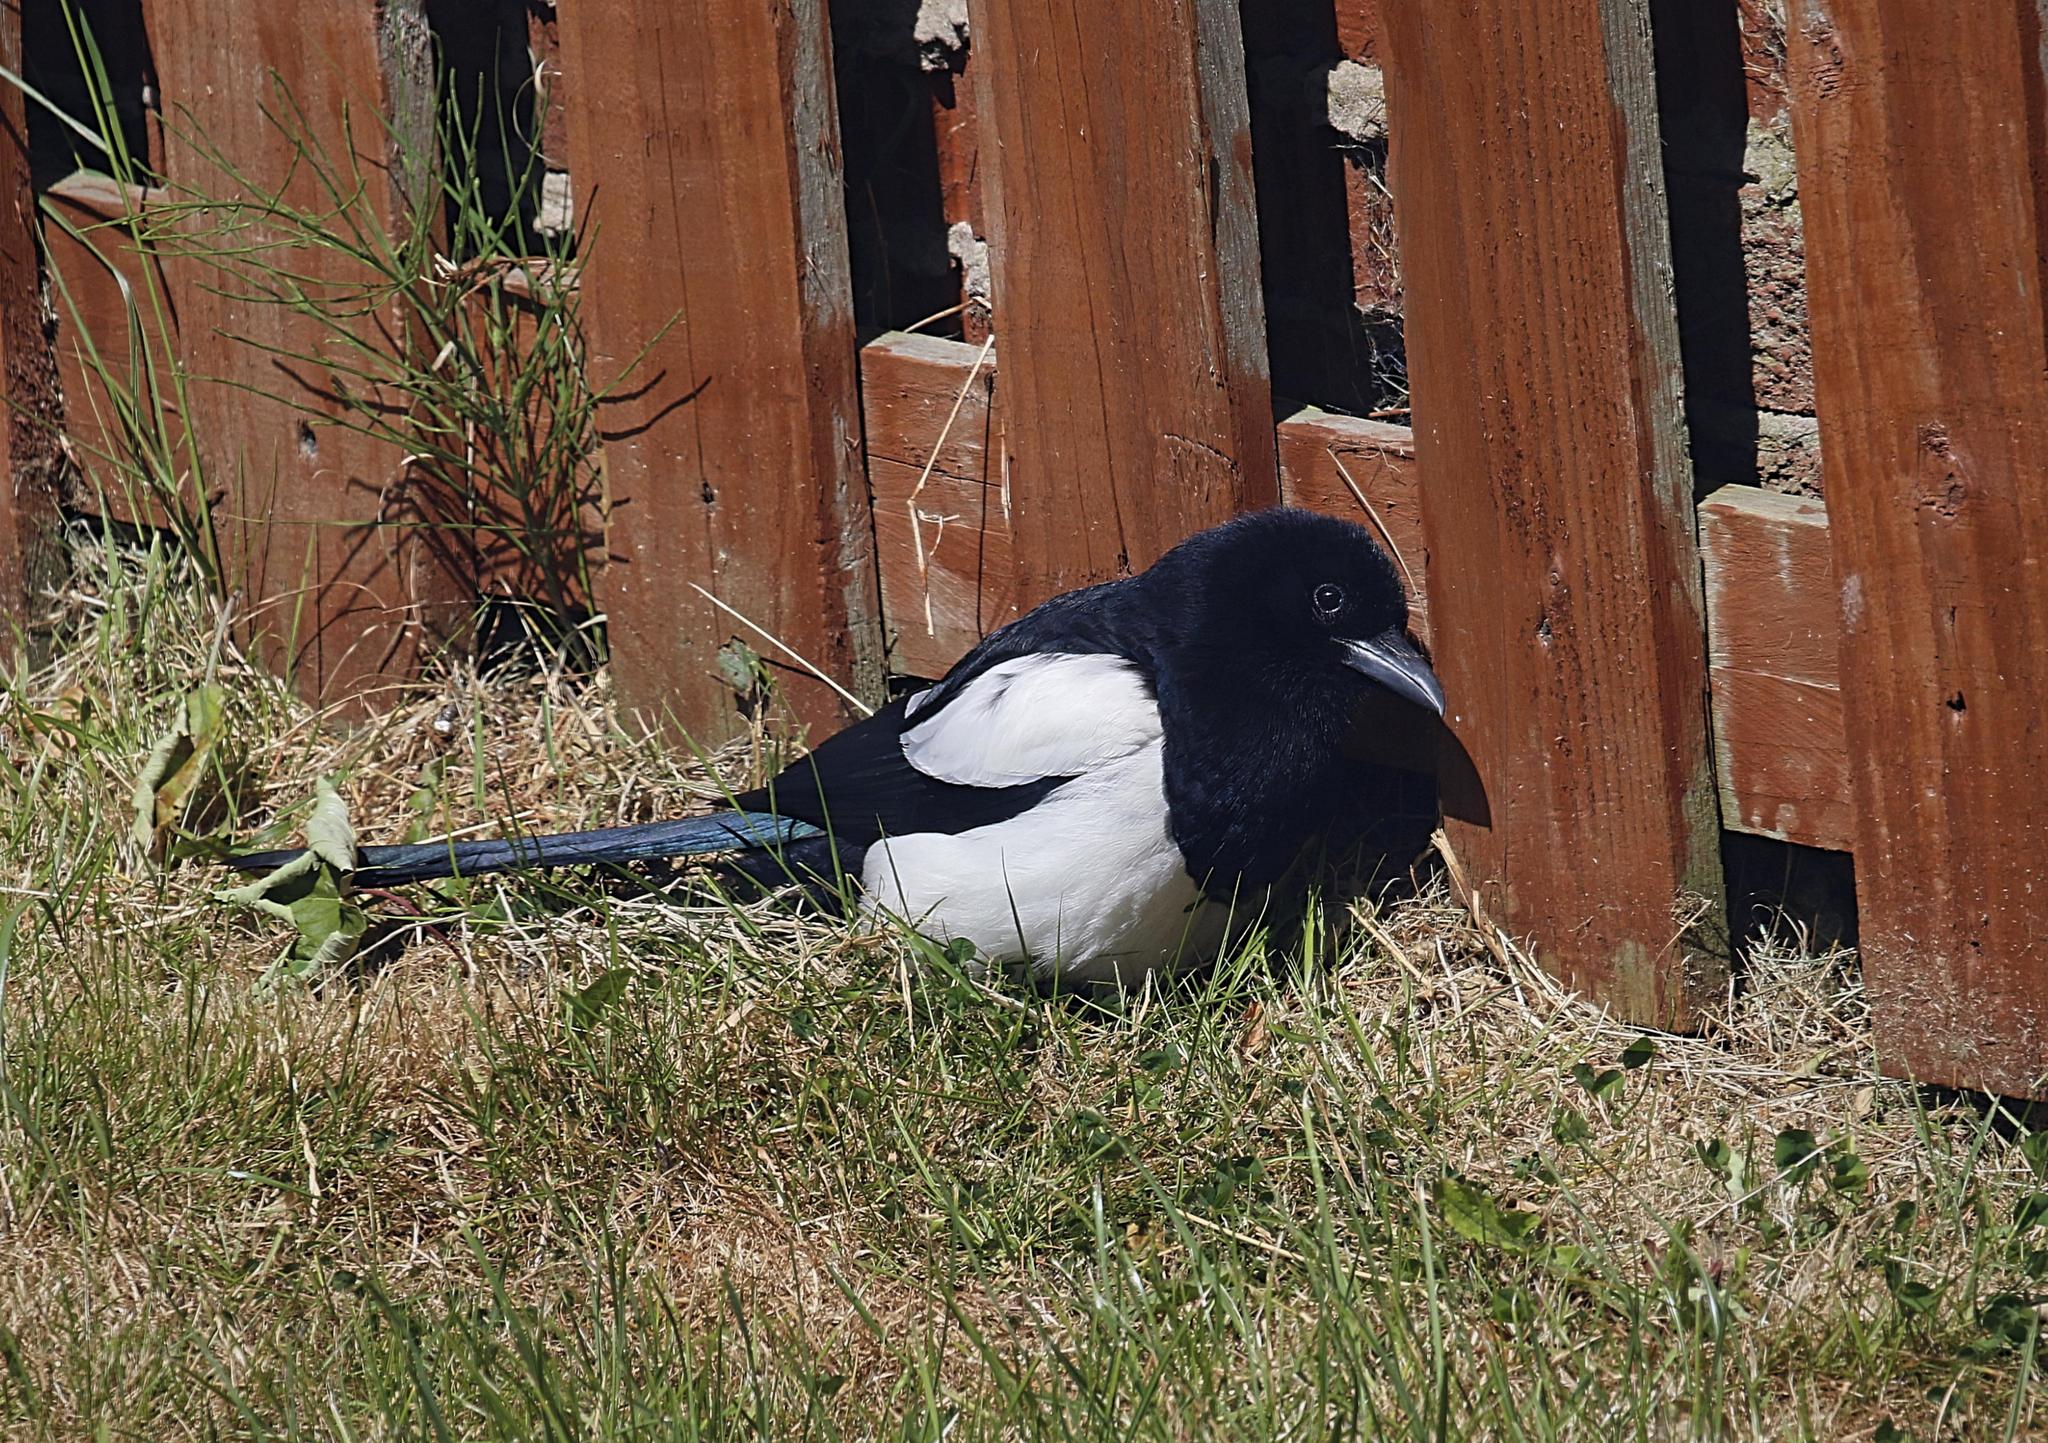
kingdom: Animalia
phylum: Chordata
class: Aves
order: Passeriformes
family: Corvidae
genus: Pica
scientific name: Pica pica
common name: Eurasian magpie
